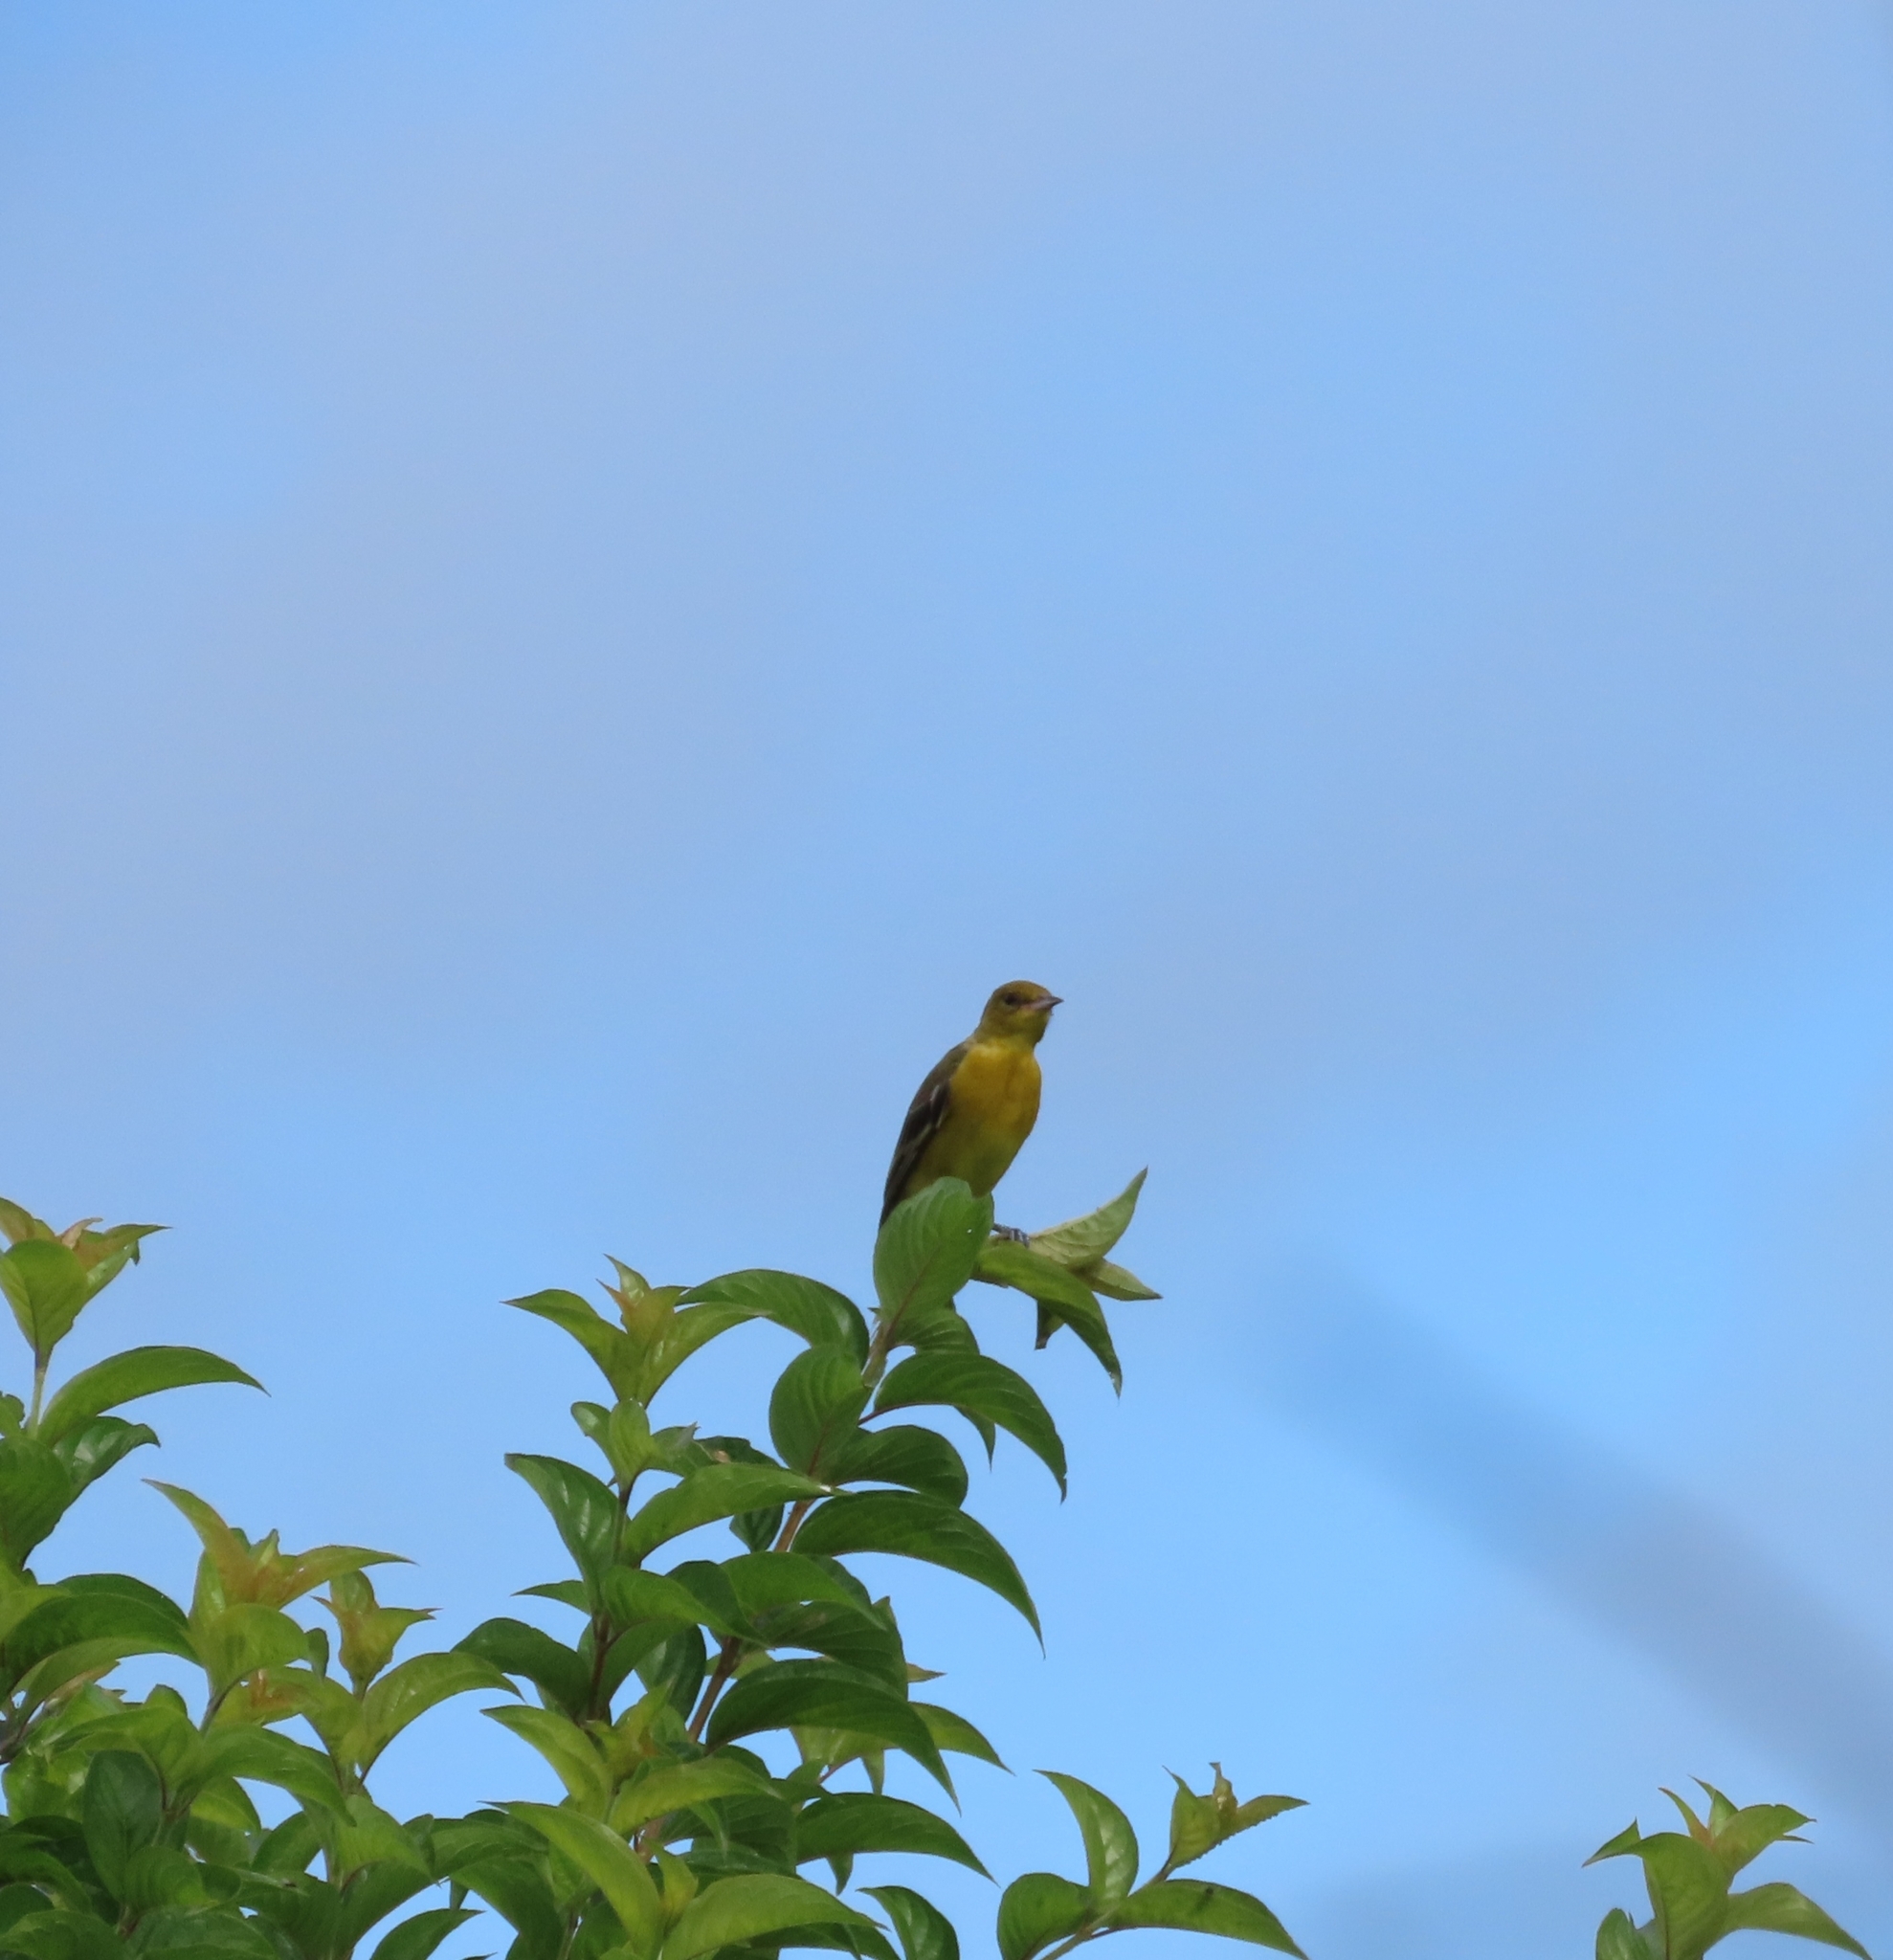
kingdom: Animalia
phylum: Chordata
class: Aves
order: Passeriformes
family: Icteridae
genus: Icterus
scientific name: Icterus galbula
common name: Baltimore oriole
